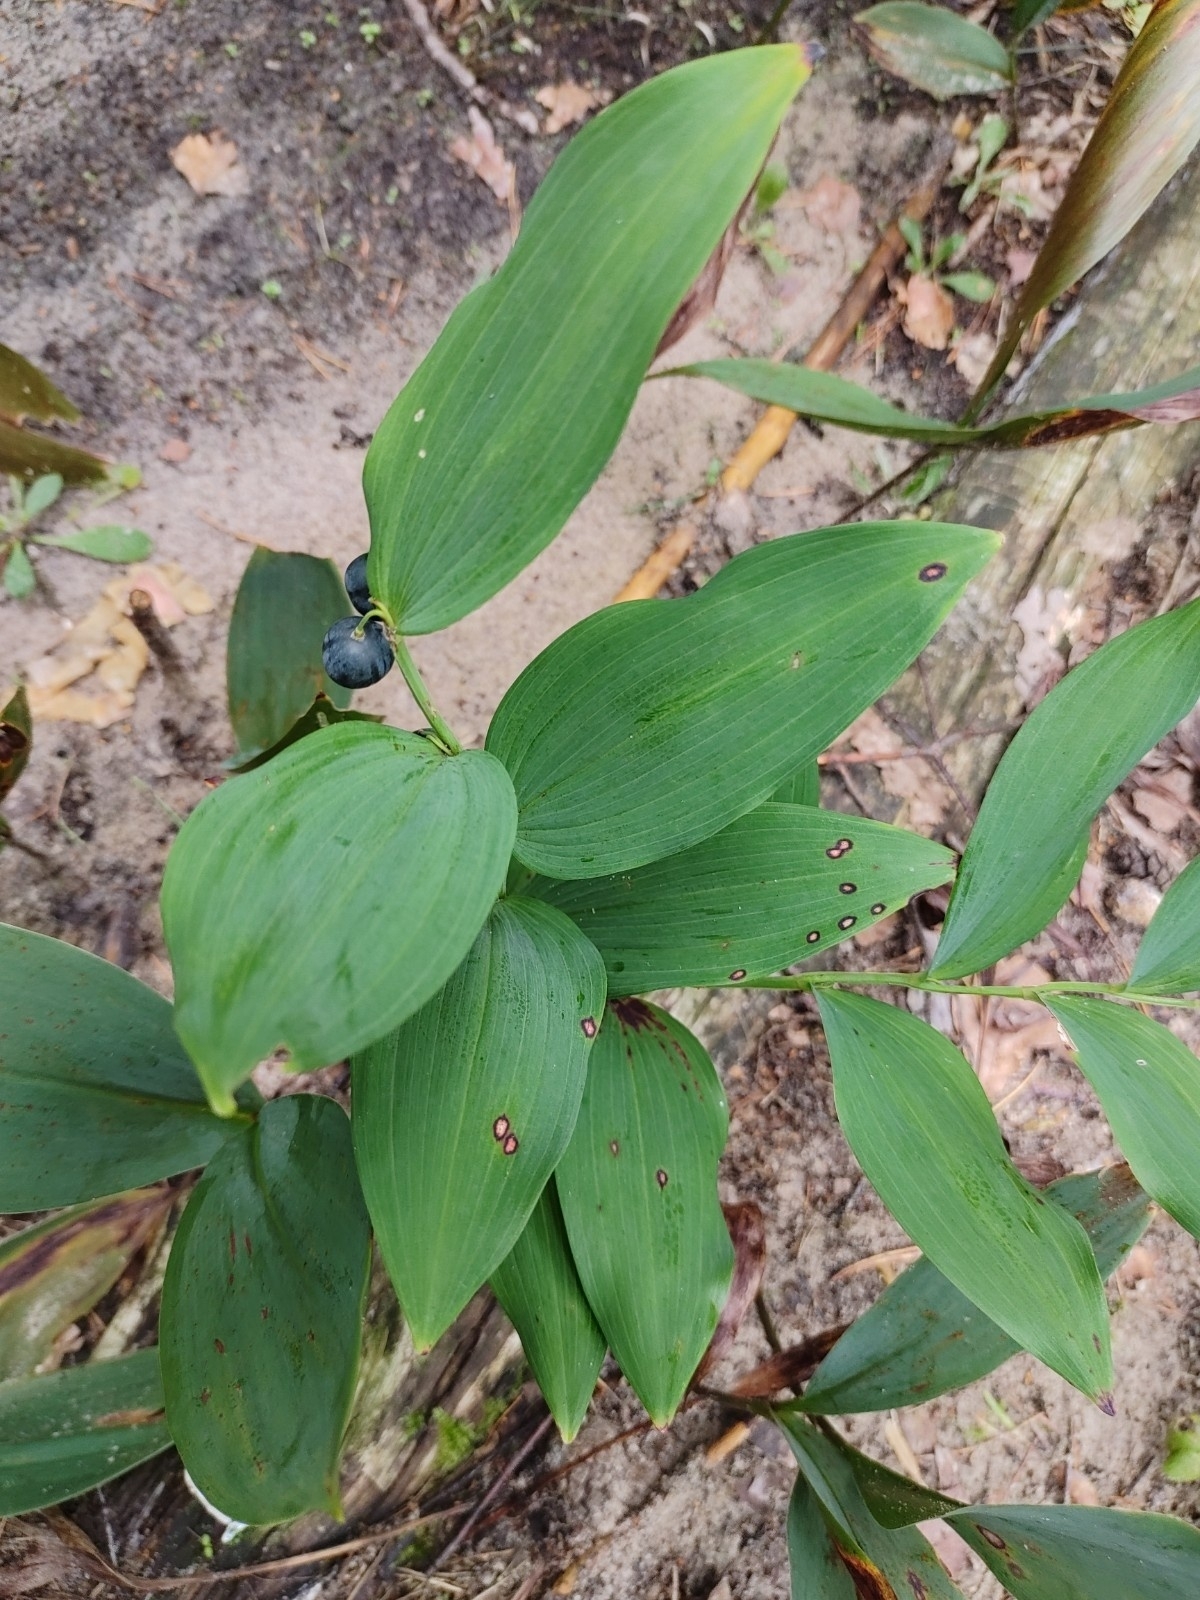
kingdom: Plantae
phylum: Tracheophyta
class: Liliopsida
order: Asparagales
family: Asparagaceae
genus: Polygonatum
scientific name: Polygonatum odoratum
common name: Angular solomon's-seal
